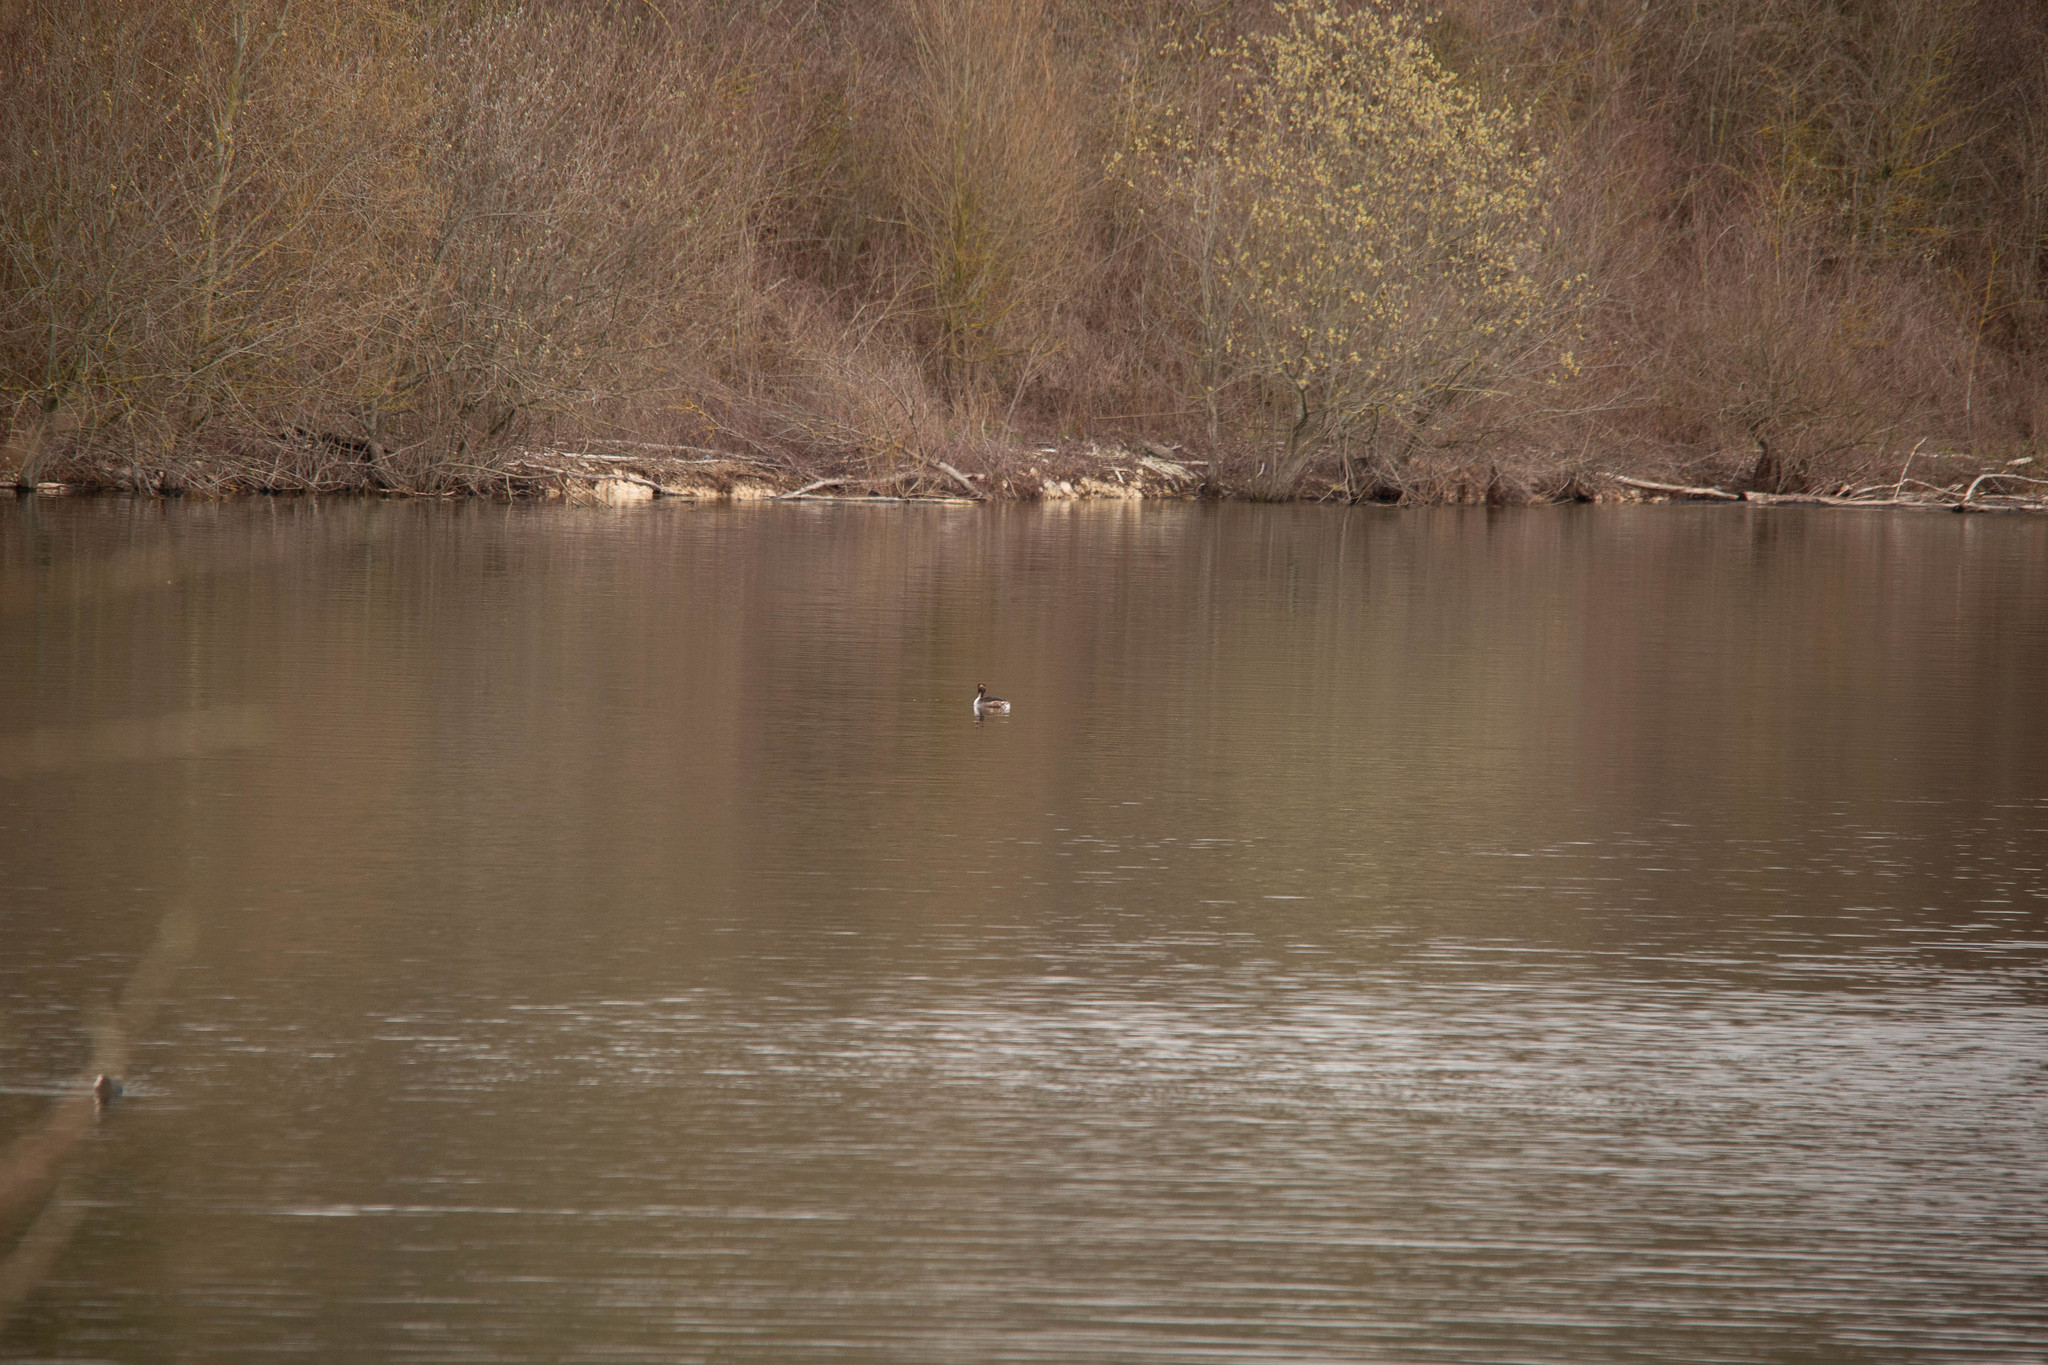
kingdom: Animalia
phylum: Chordata
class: Aves
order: Podicipediformes
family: Podicipedidae
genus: Podiceps
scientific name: Podiceps cristatus
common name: Great crested grebe
